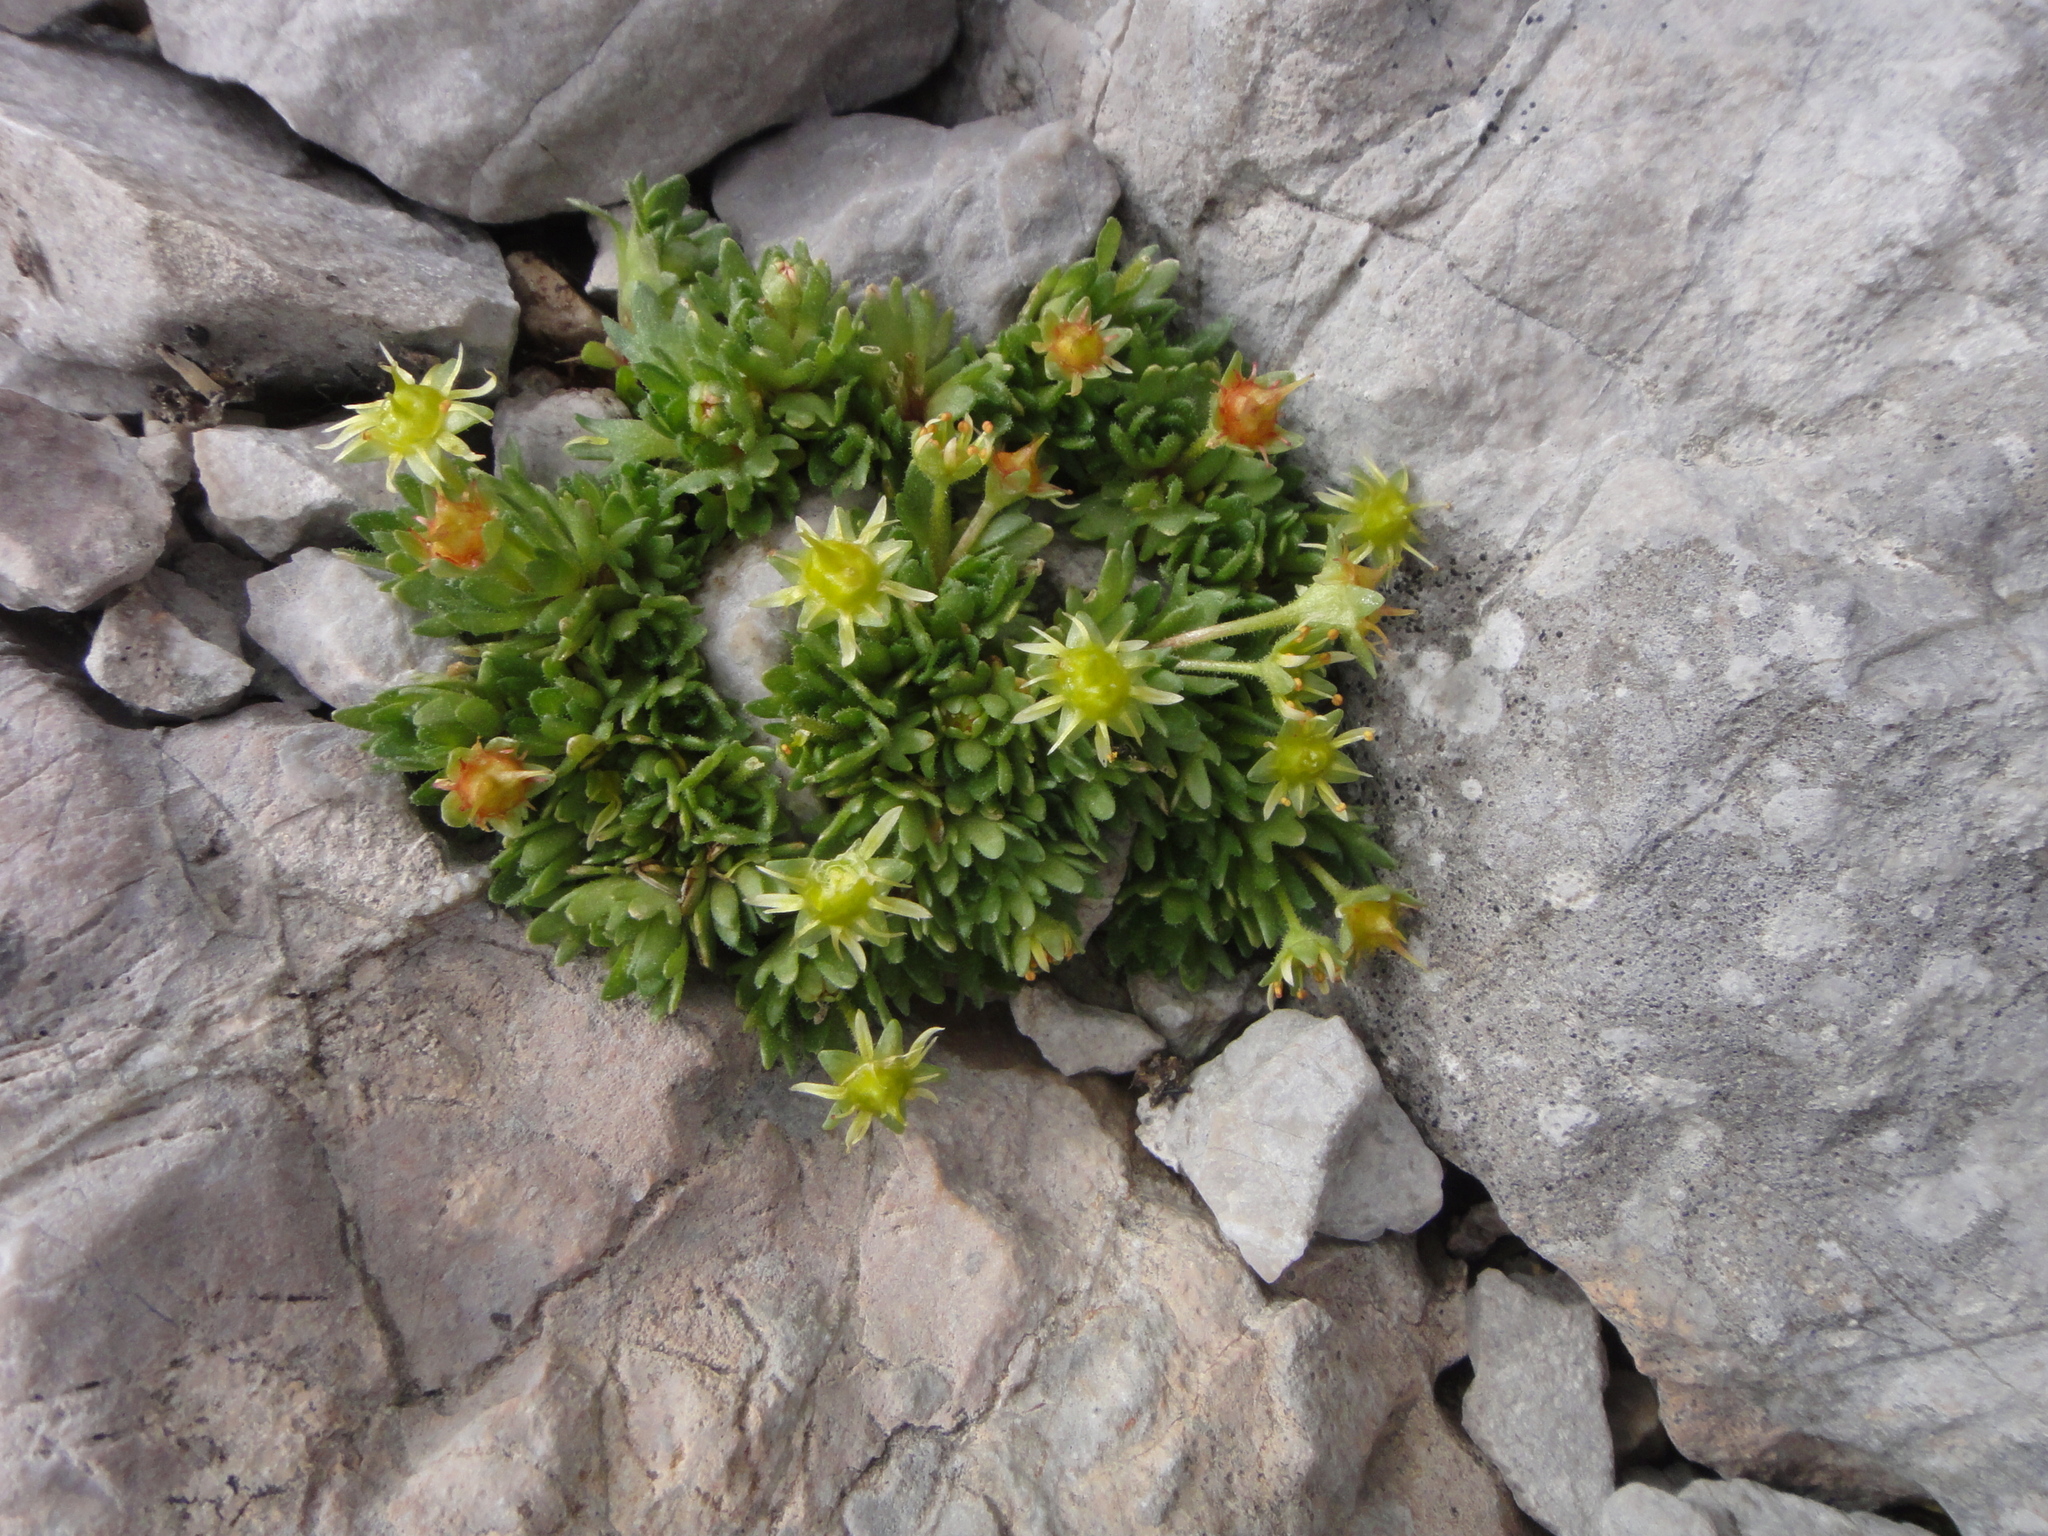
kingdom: Plantae
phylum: Tracheophyta
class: Magnoliopsida
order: Saxifragales
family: Saxifragaceae
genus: Saxifraga
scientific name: Saxifraga aphylla
